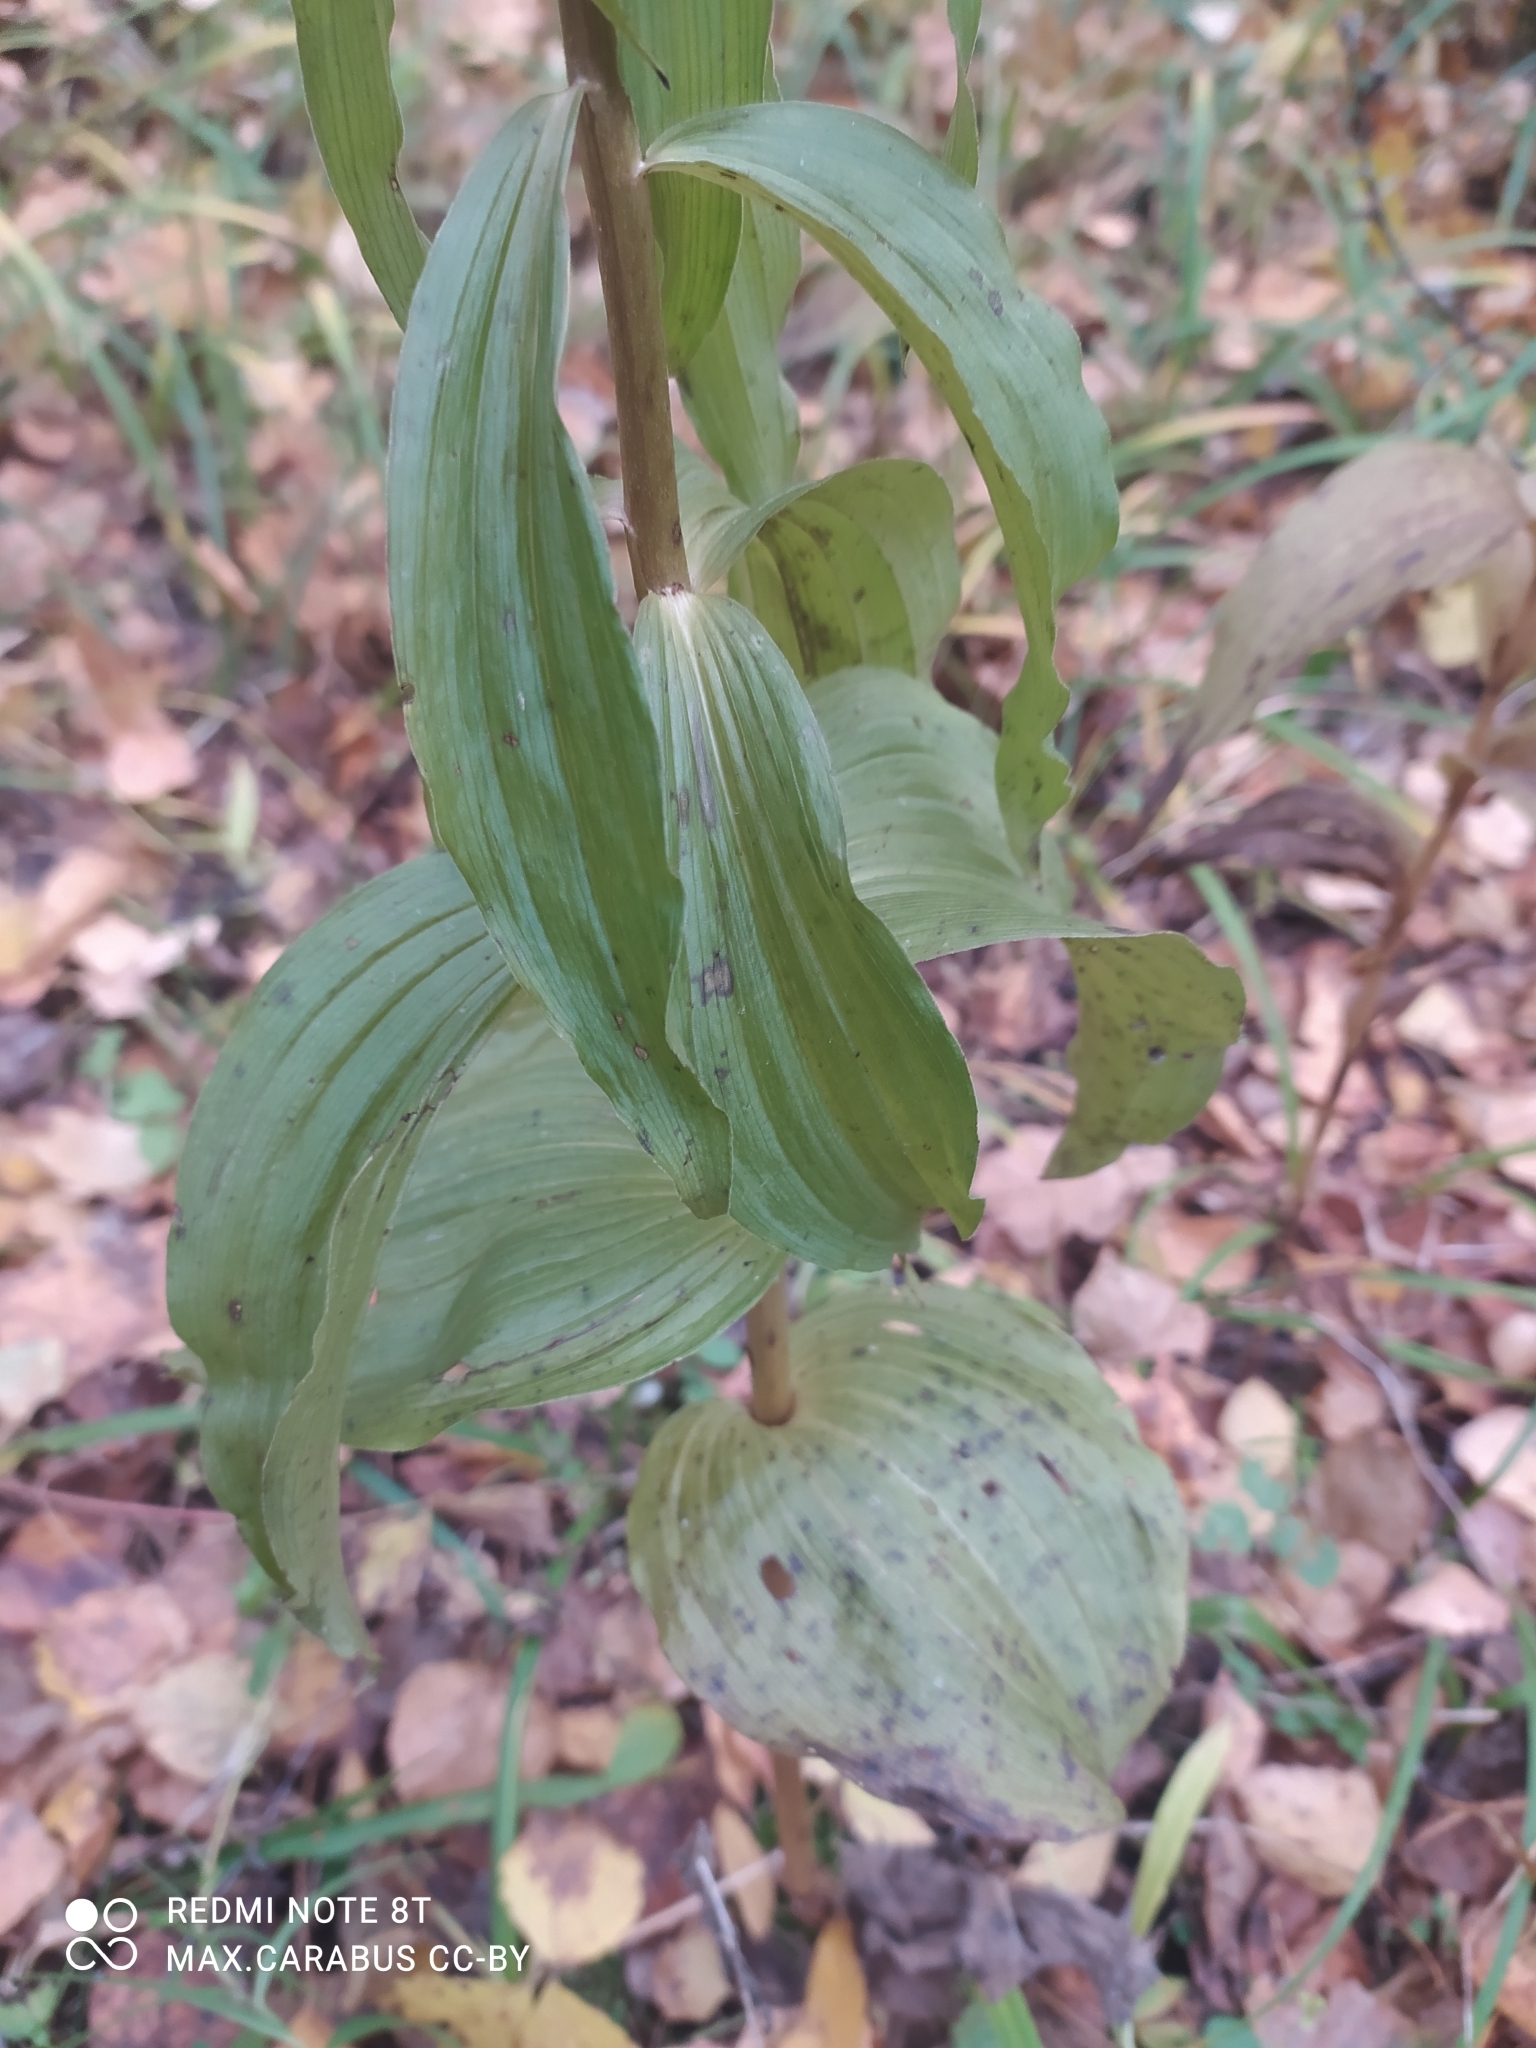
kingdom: Plantae
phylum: Tracheophyta
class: Liliopsida
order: Asparagales
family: Orchidaceae
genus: Epipactis
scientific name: Epipactis helleborine
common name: Broad-leaved helleborine
